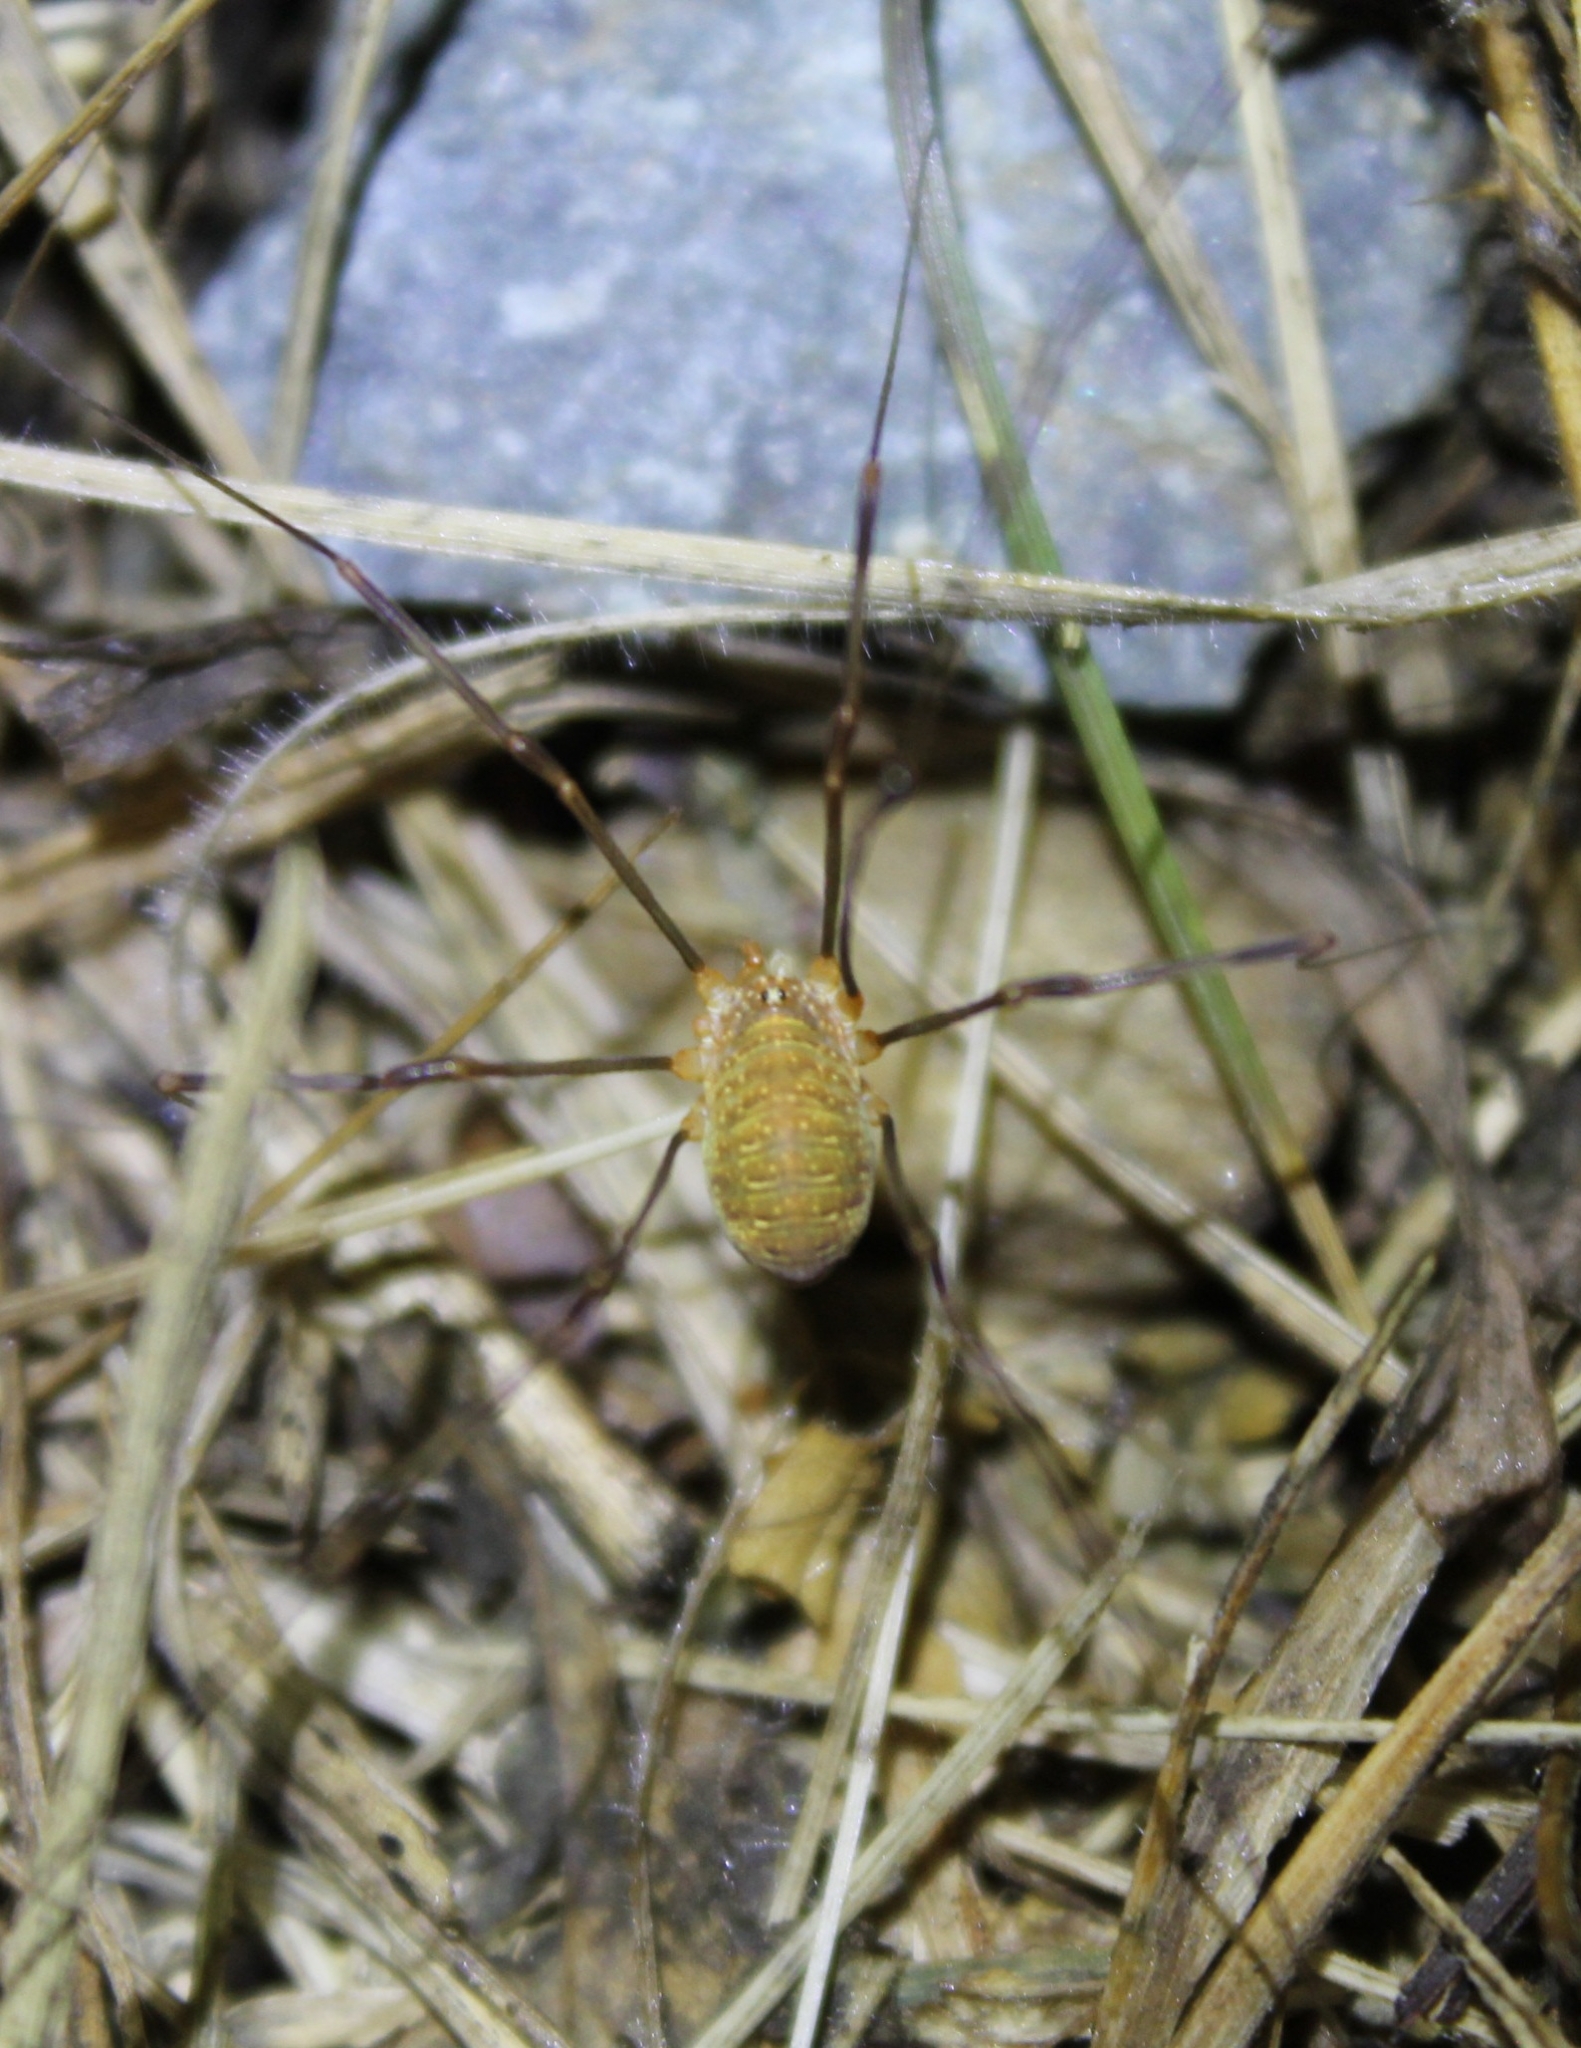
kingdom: Animalia
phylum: Arthropoda
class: Arachnida
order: Opiliones
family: Phalangiidae
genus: Opilio
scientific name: Opilio canestrinii
